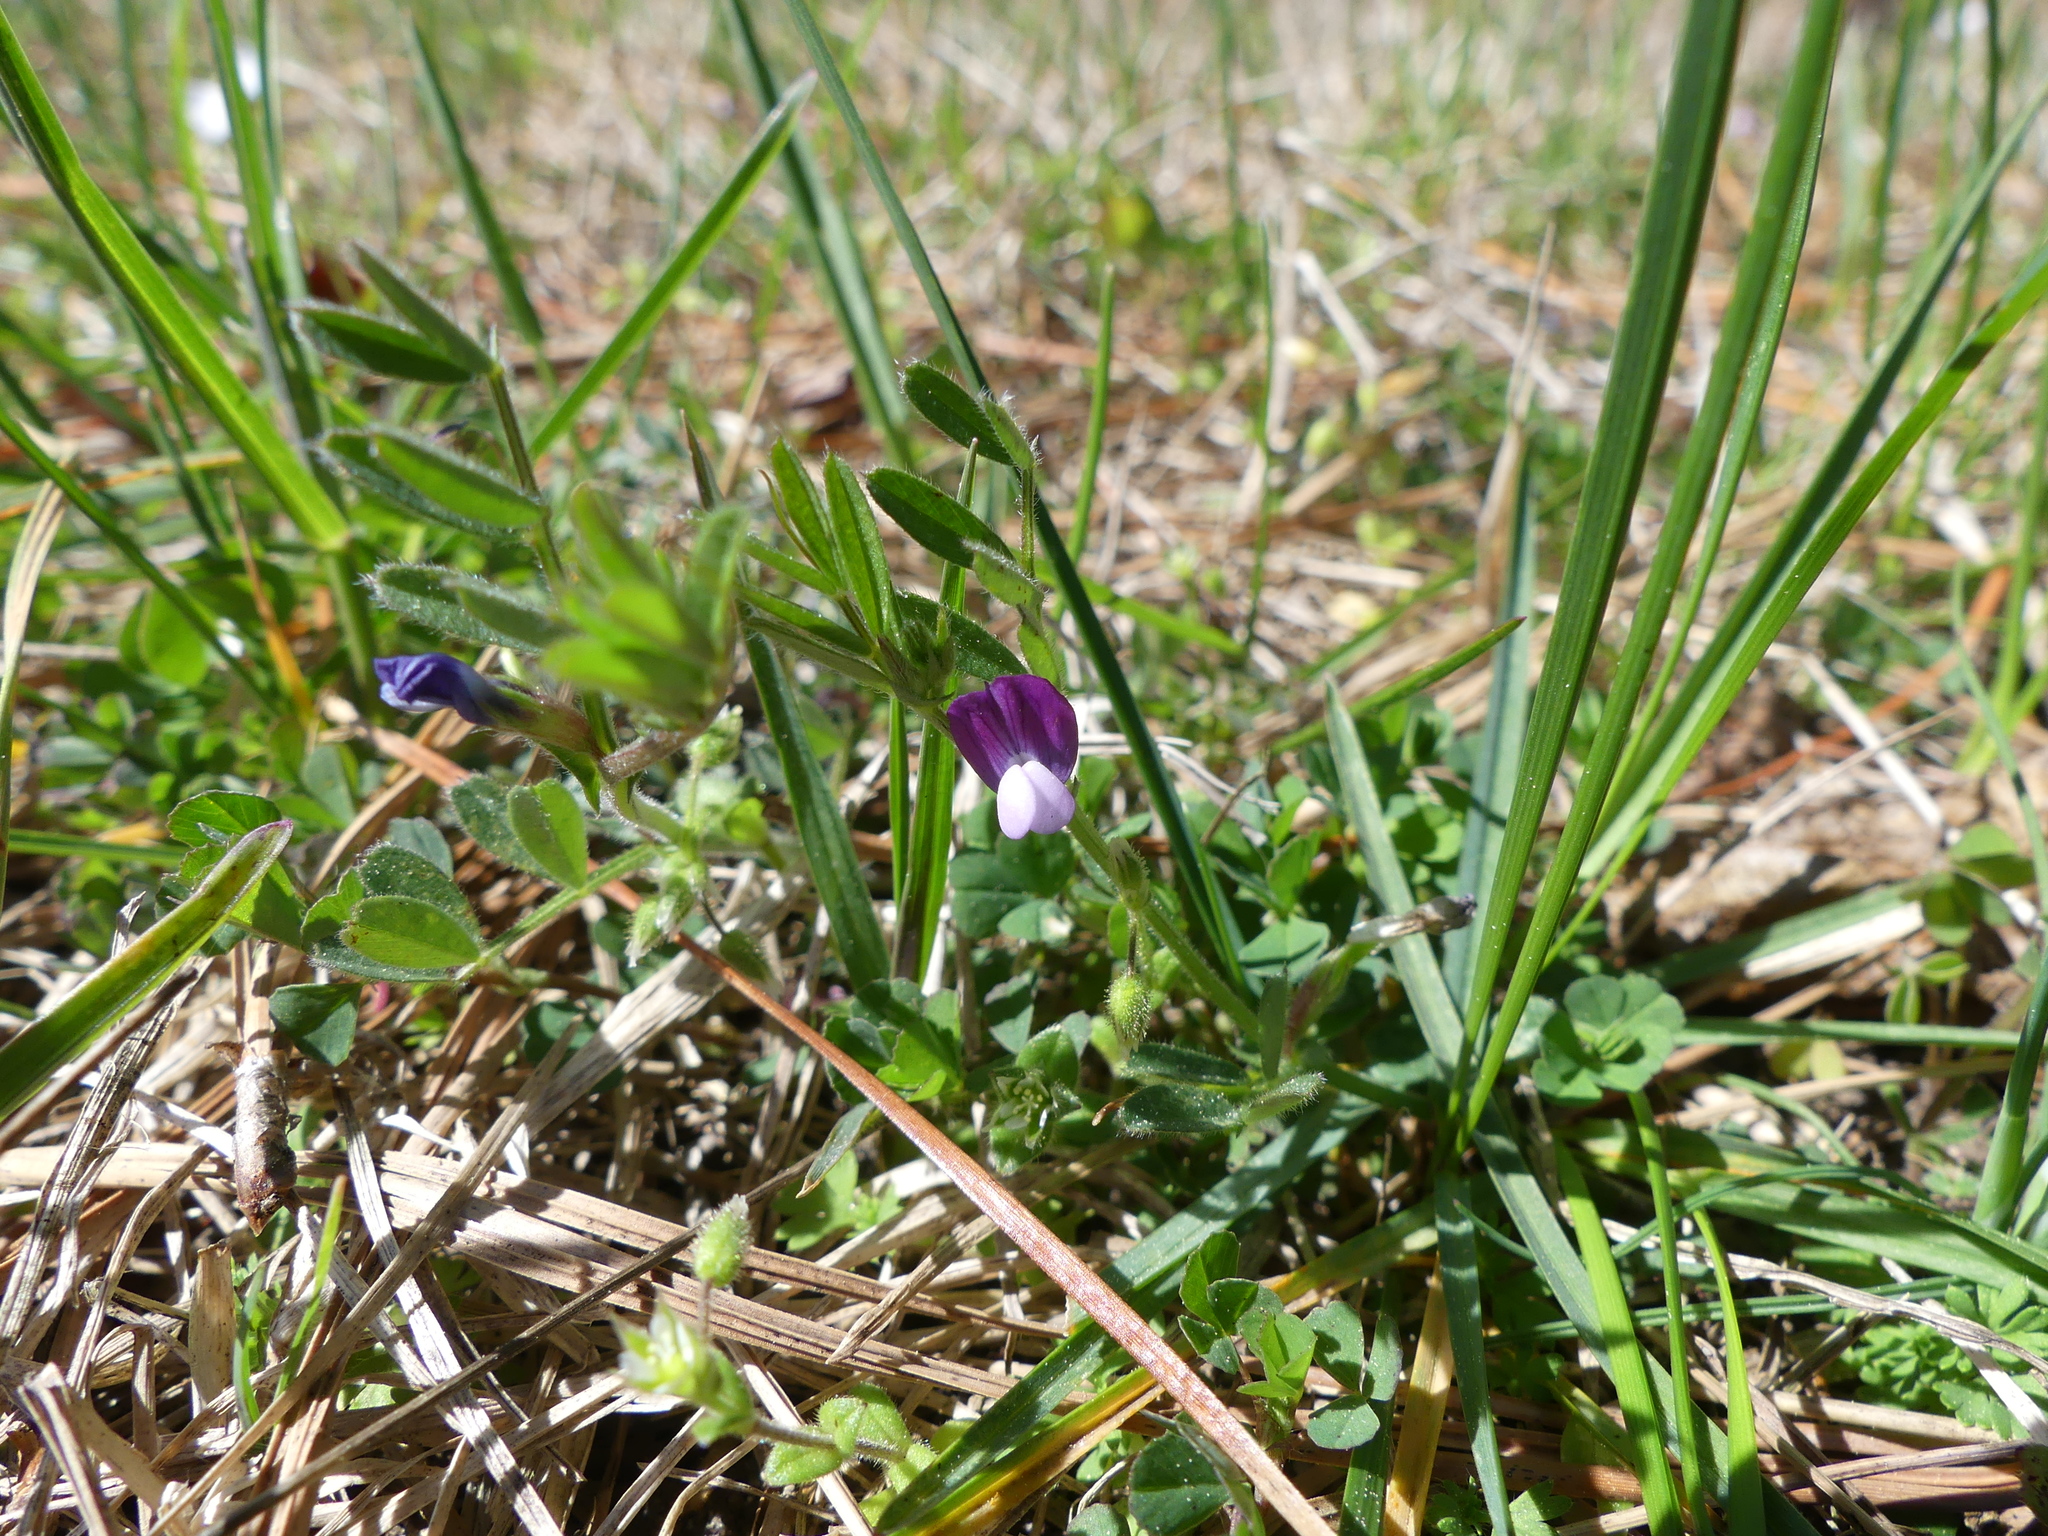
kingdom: Plantae
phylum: Tracheophyta
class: Magnoliopsida
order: Fabales
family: Fabaceae
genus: Vicia
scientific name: Vicia lathyroides
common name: Spring vetch
